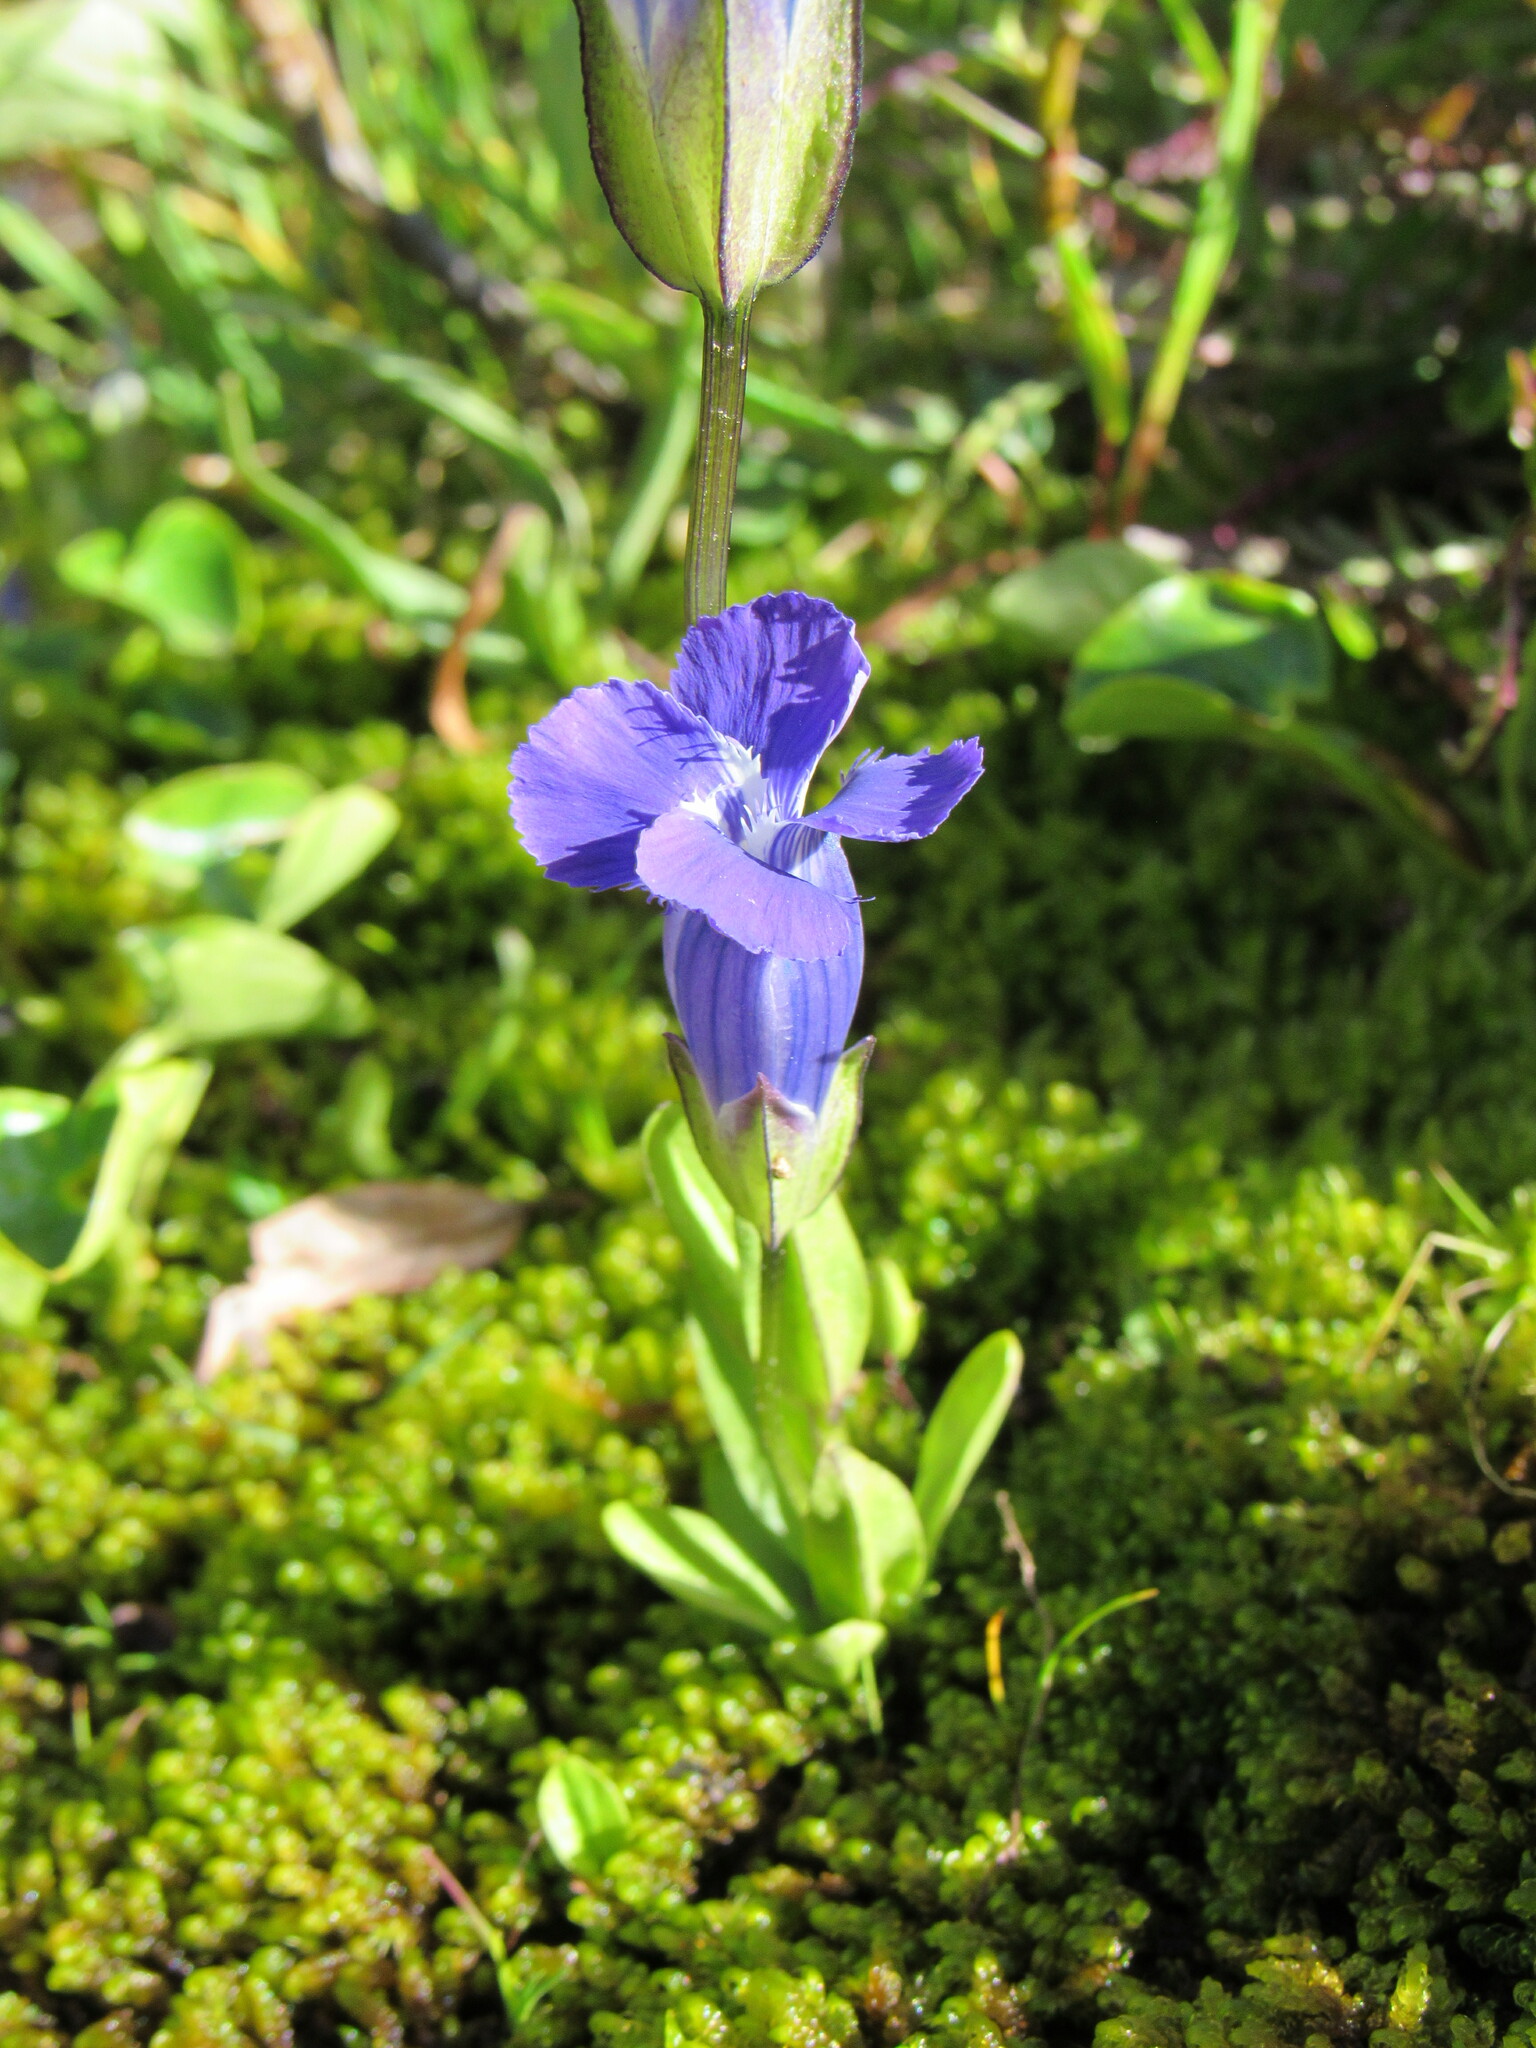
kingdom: Plantae
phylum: Tracheophyta
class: Magnoliopsida
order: Gentianales
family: Gentianaceae
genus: Gentianopsis
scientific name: Gentianopsis thermalis
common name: Rocky mountain fringed-gentian
